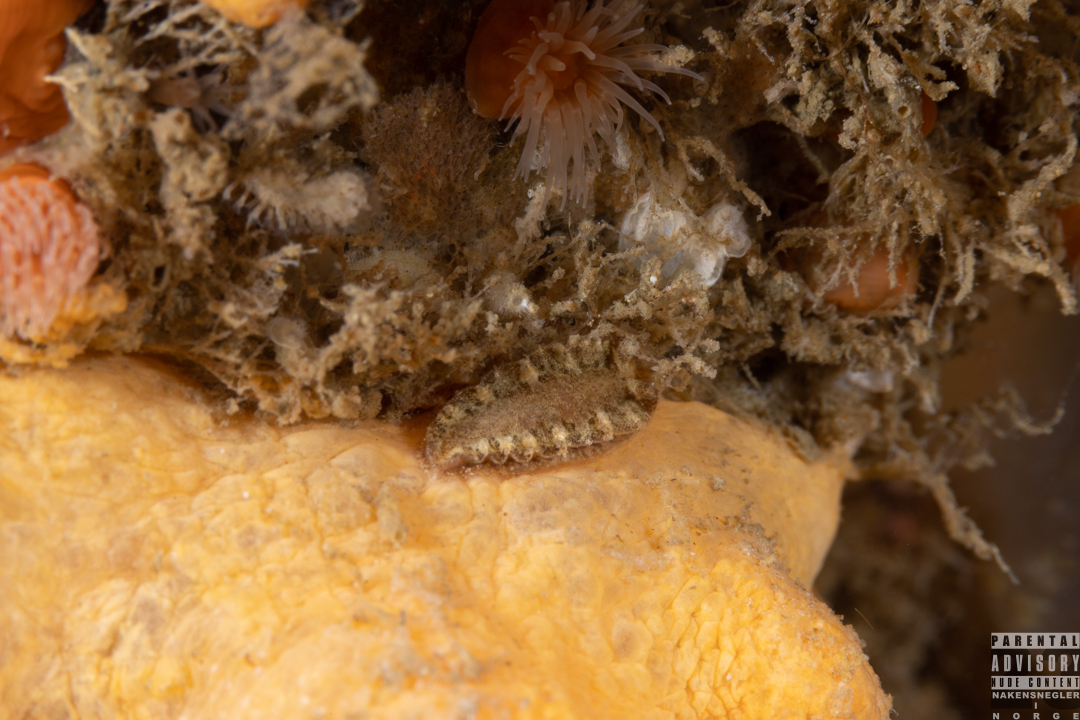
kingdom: Animalia
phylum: Mollusca
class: Gastropoda
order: Nudibranchia
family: Tritoniidae
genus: Duvaucelia
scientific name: Duvaucelia plebeia
